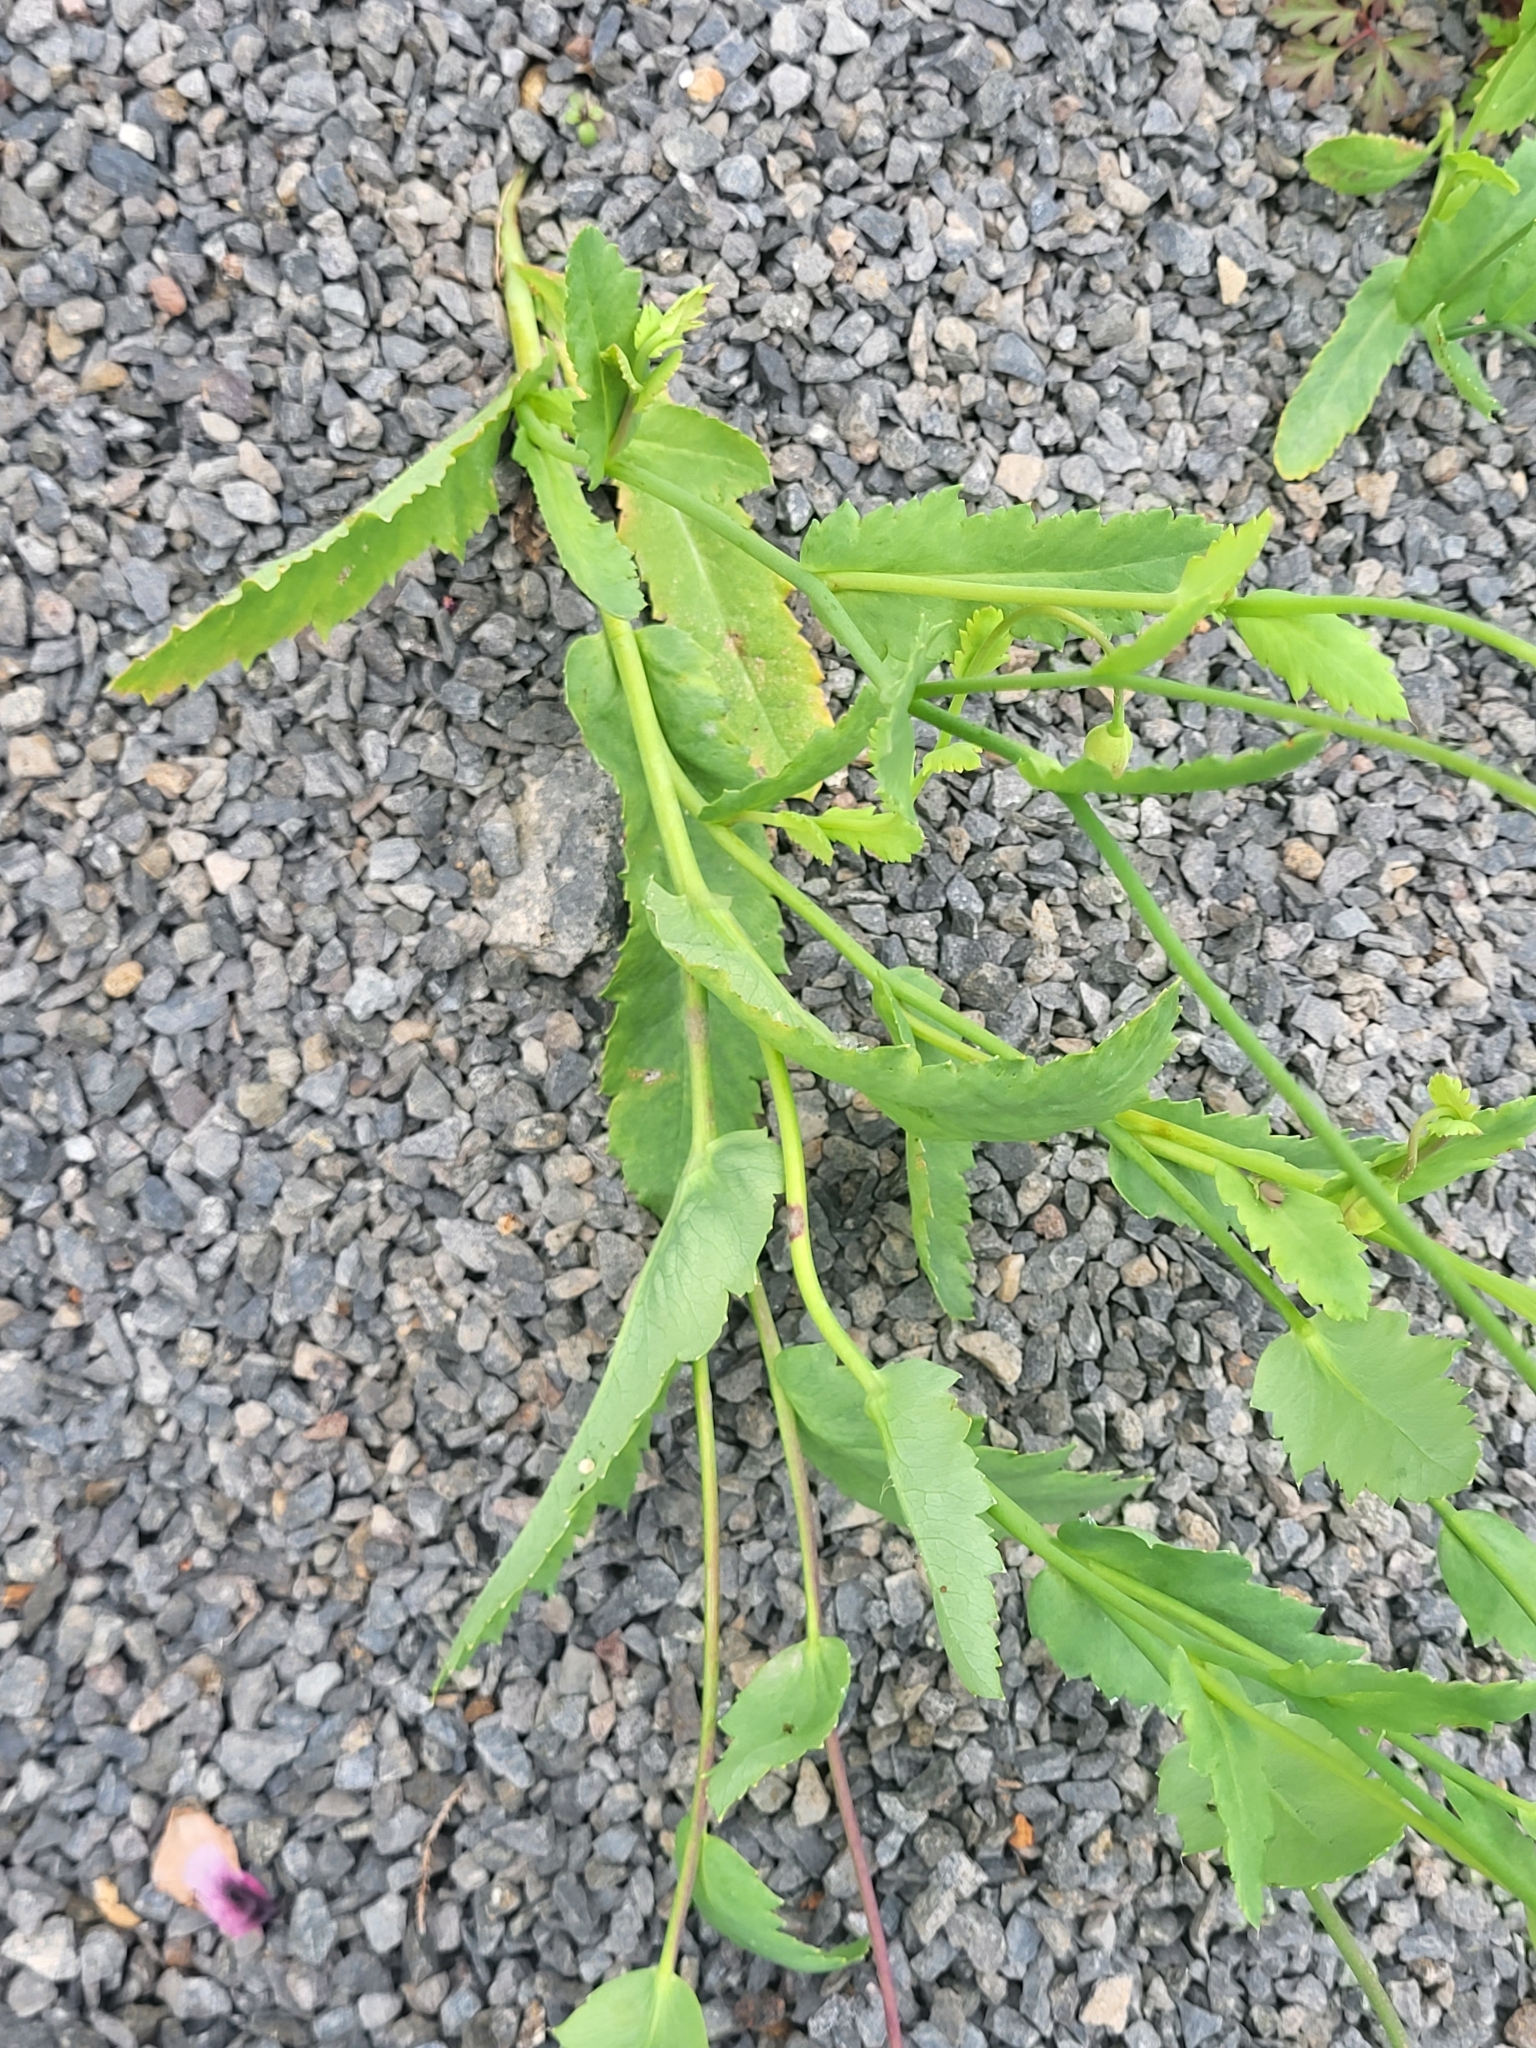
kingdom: Plantae
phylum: Tracheophyta
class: Magnoliopsida
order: Ranunculales
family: Papaveraceae
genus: Papaver
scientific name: Papaver somniferum
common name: Opium poppy
